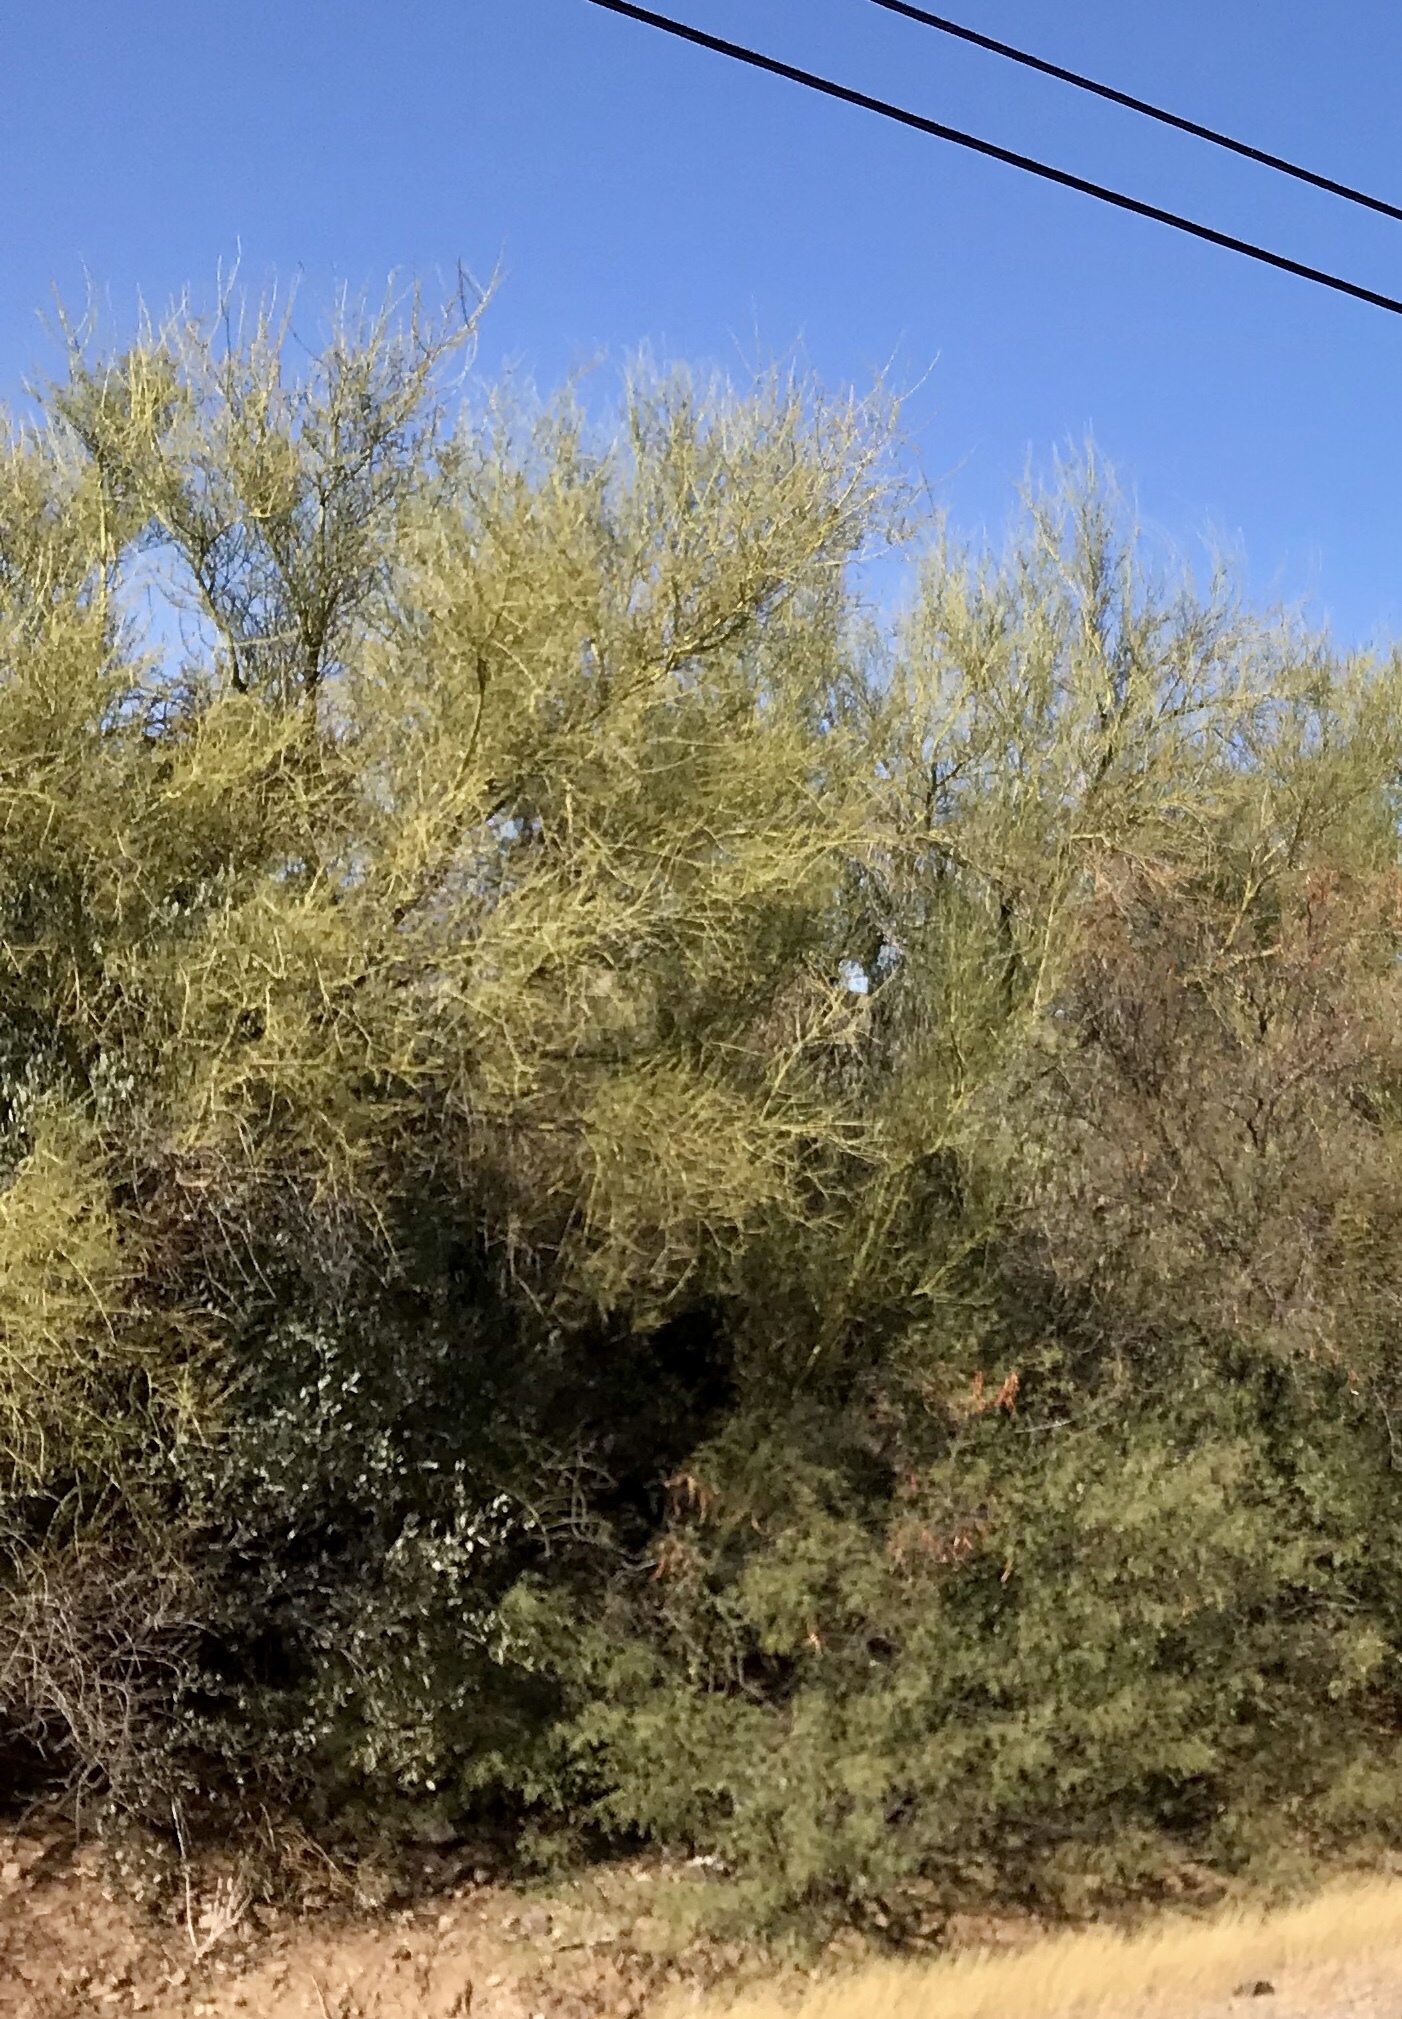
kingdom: Plantae
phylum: Tracheophyta
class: Magnoliopsida
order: Fabales
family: Fabaceae
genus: Parkinsonia
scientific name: Parkinsonia microphylla
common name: Yellow paloverde
